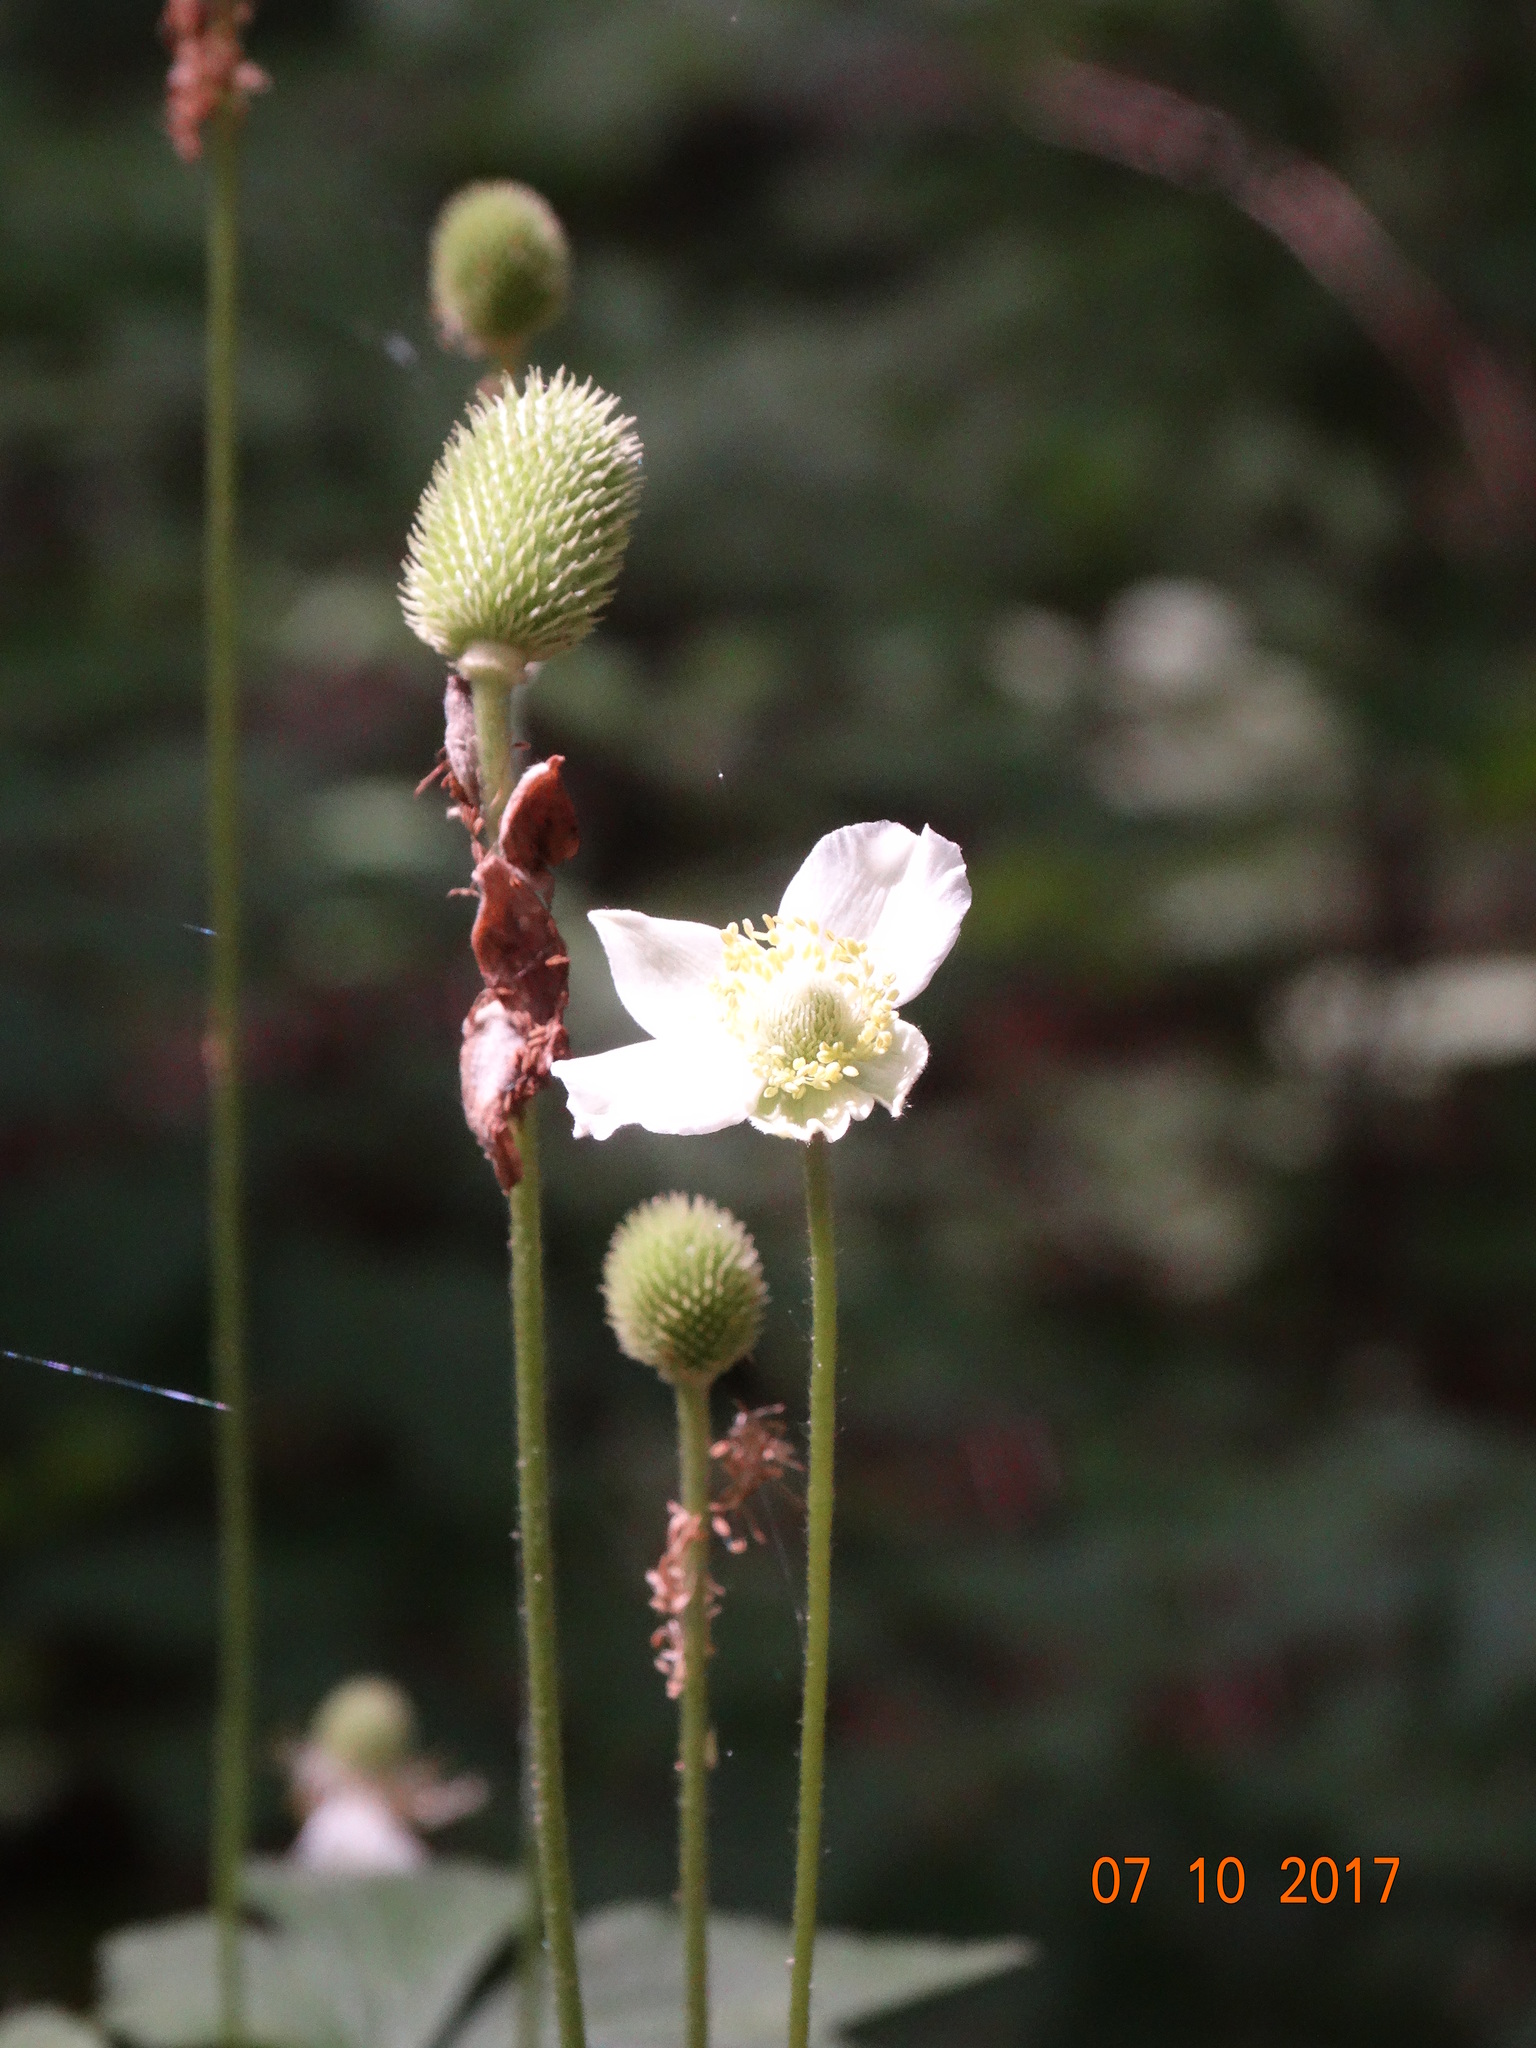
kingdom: Plantae
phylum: Tracheophyta
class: Magnoliopsida
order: Ranunculales
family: Ranunculaceae
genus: Anemone
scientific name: Anemone virginiana
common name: Tall anemone
